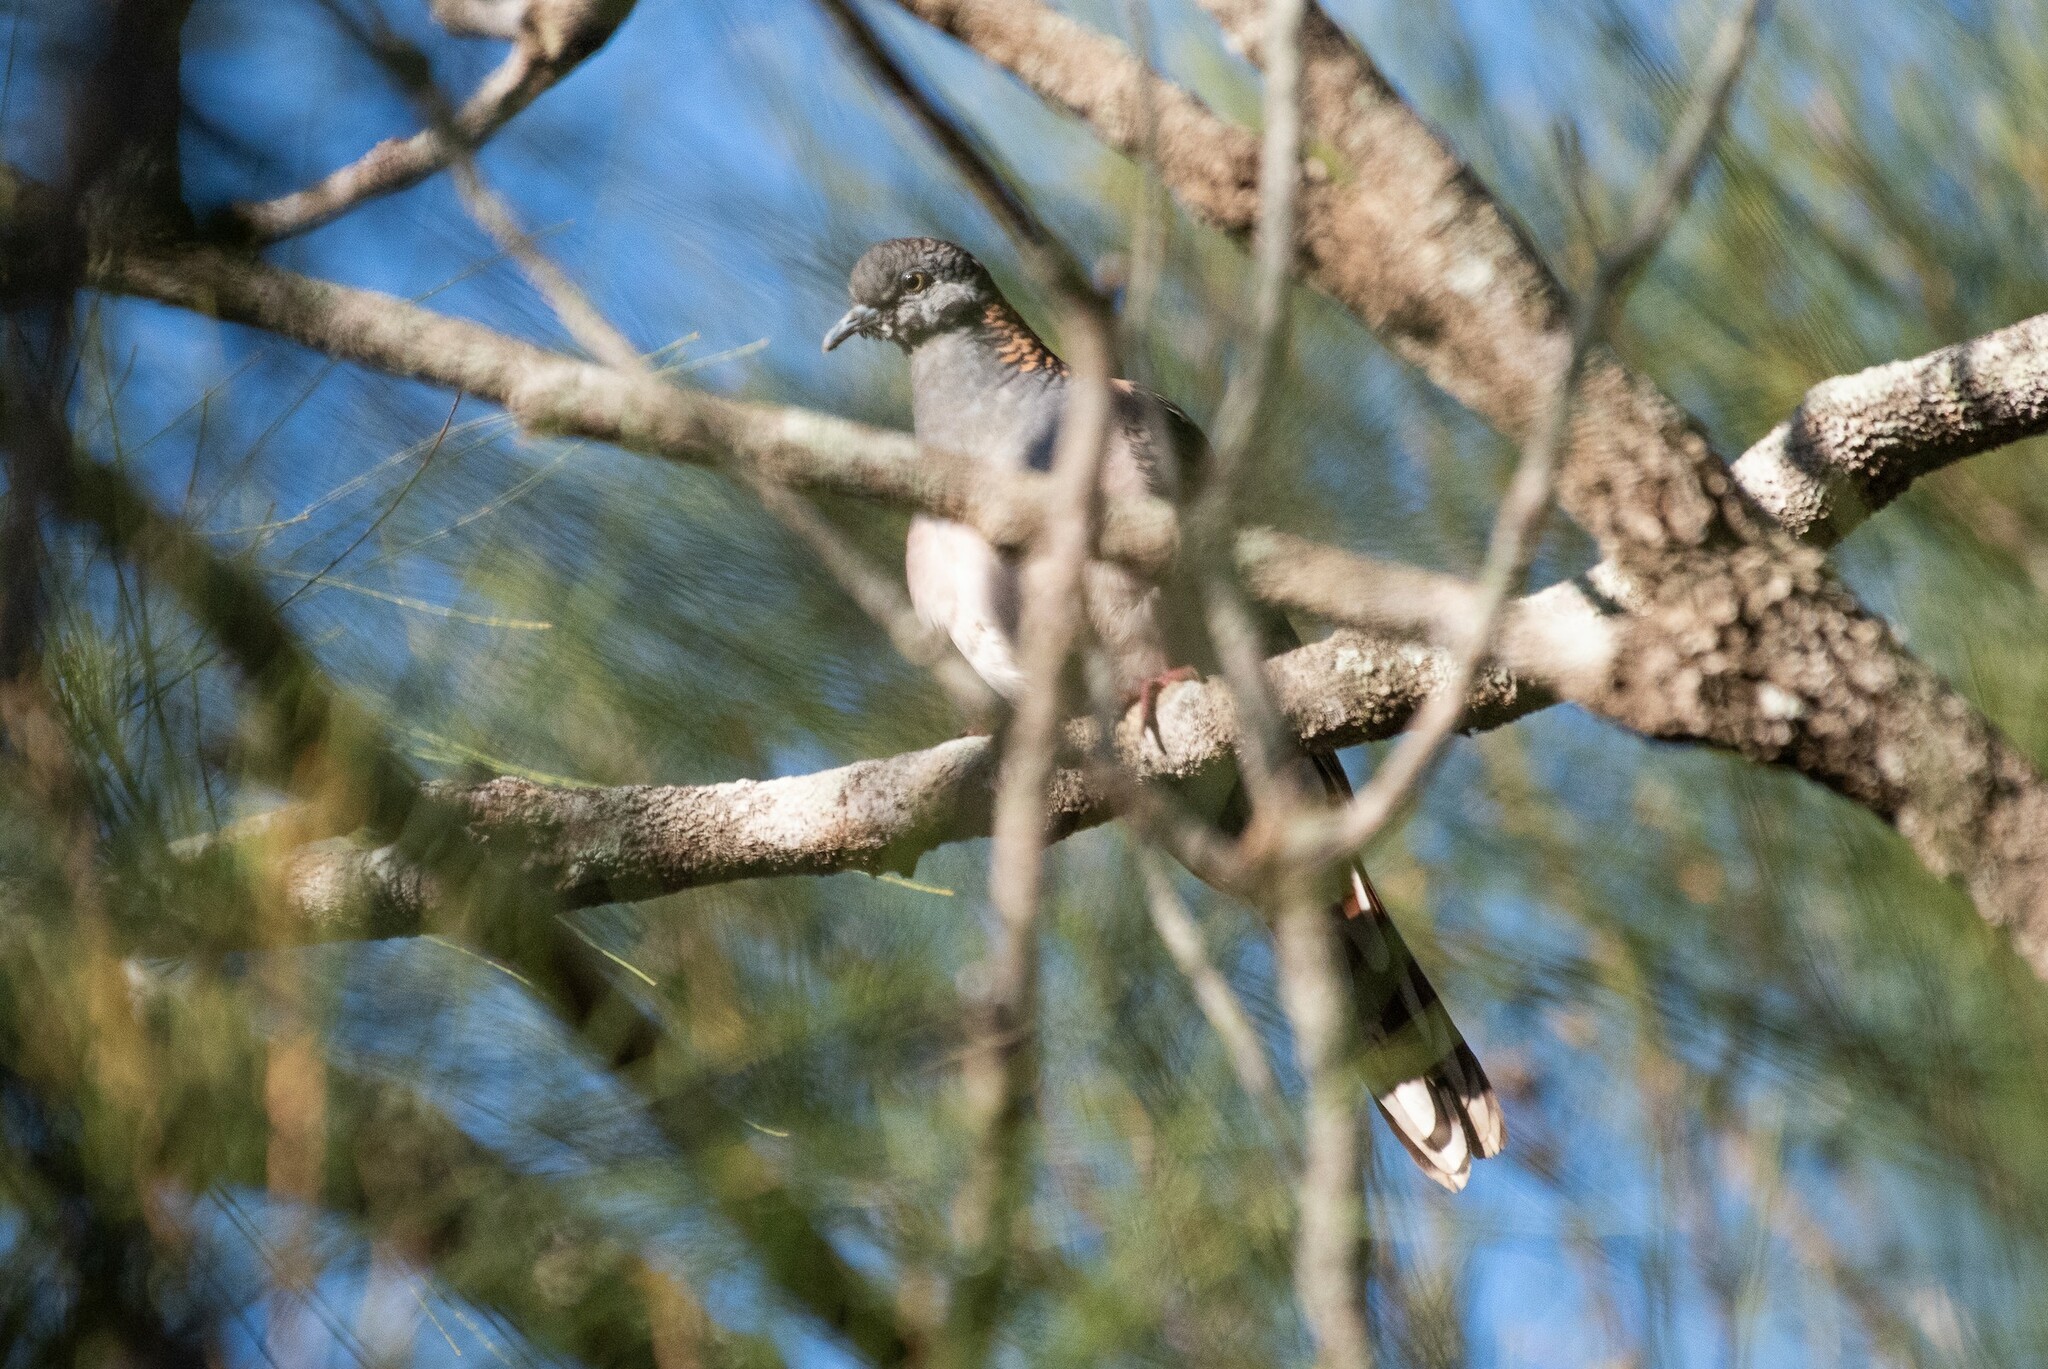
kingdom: Animalia
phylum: Chordata
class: Aves
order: Columbiformes
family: Columbidae
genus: Geopelia
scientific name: Geopelia humeralis
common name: Bar-shouldered dove
